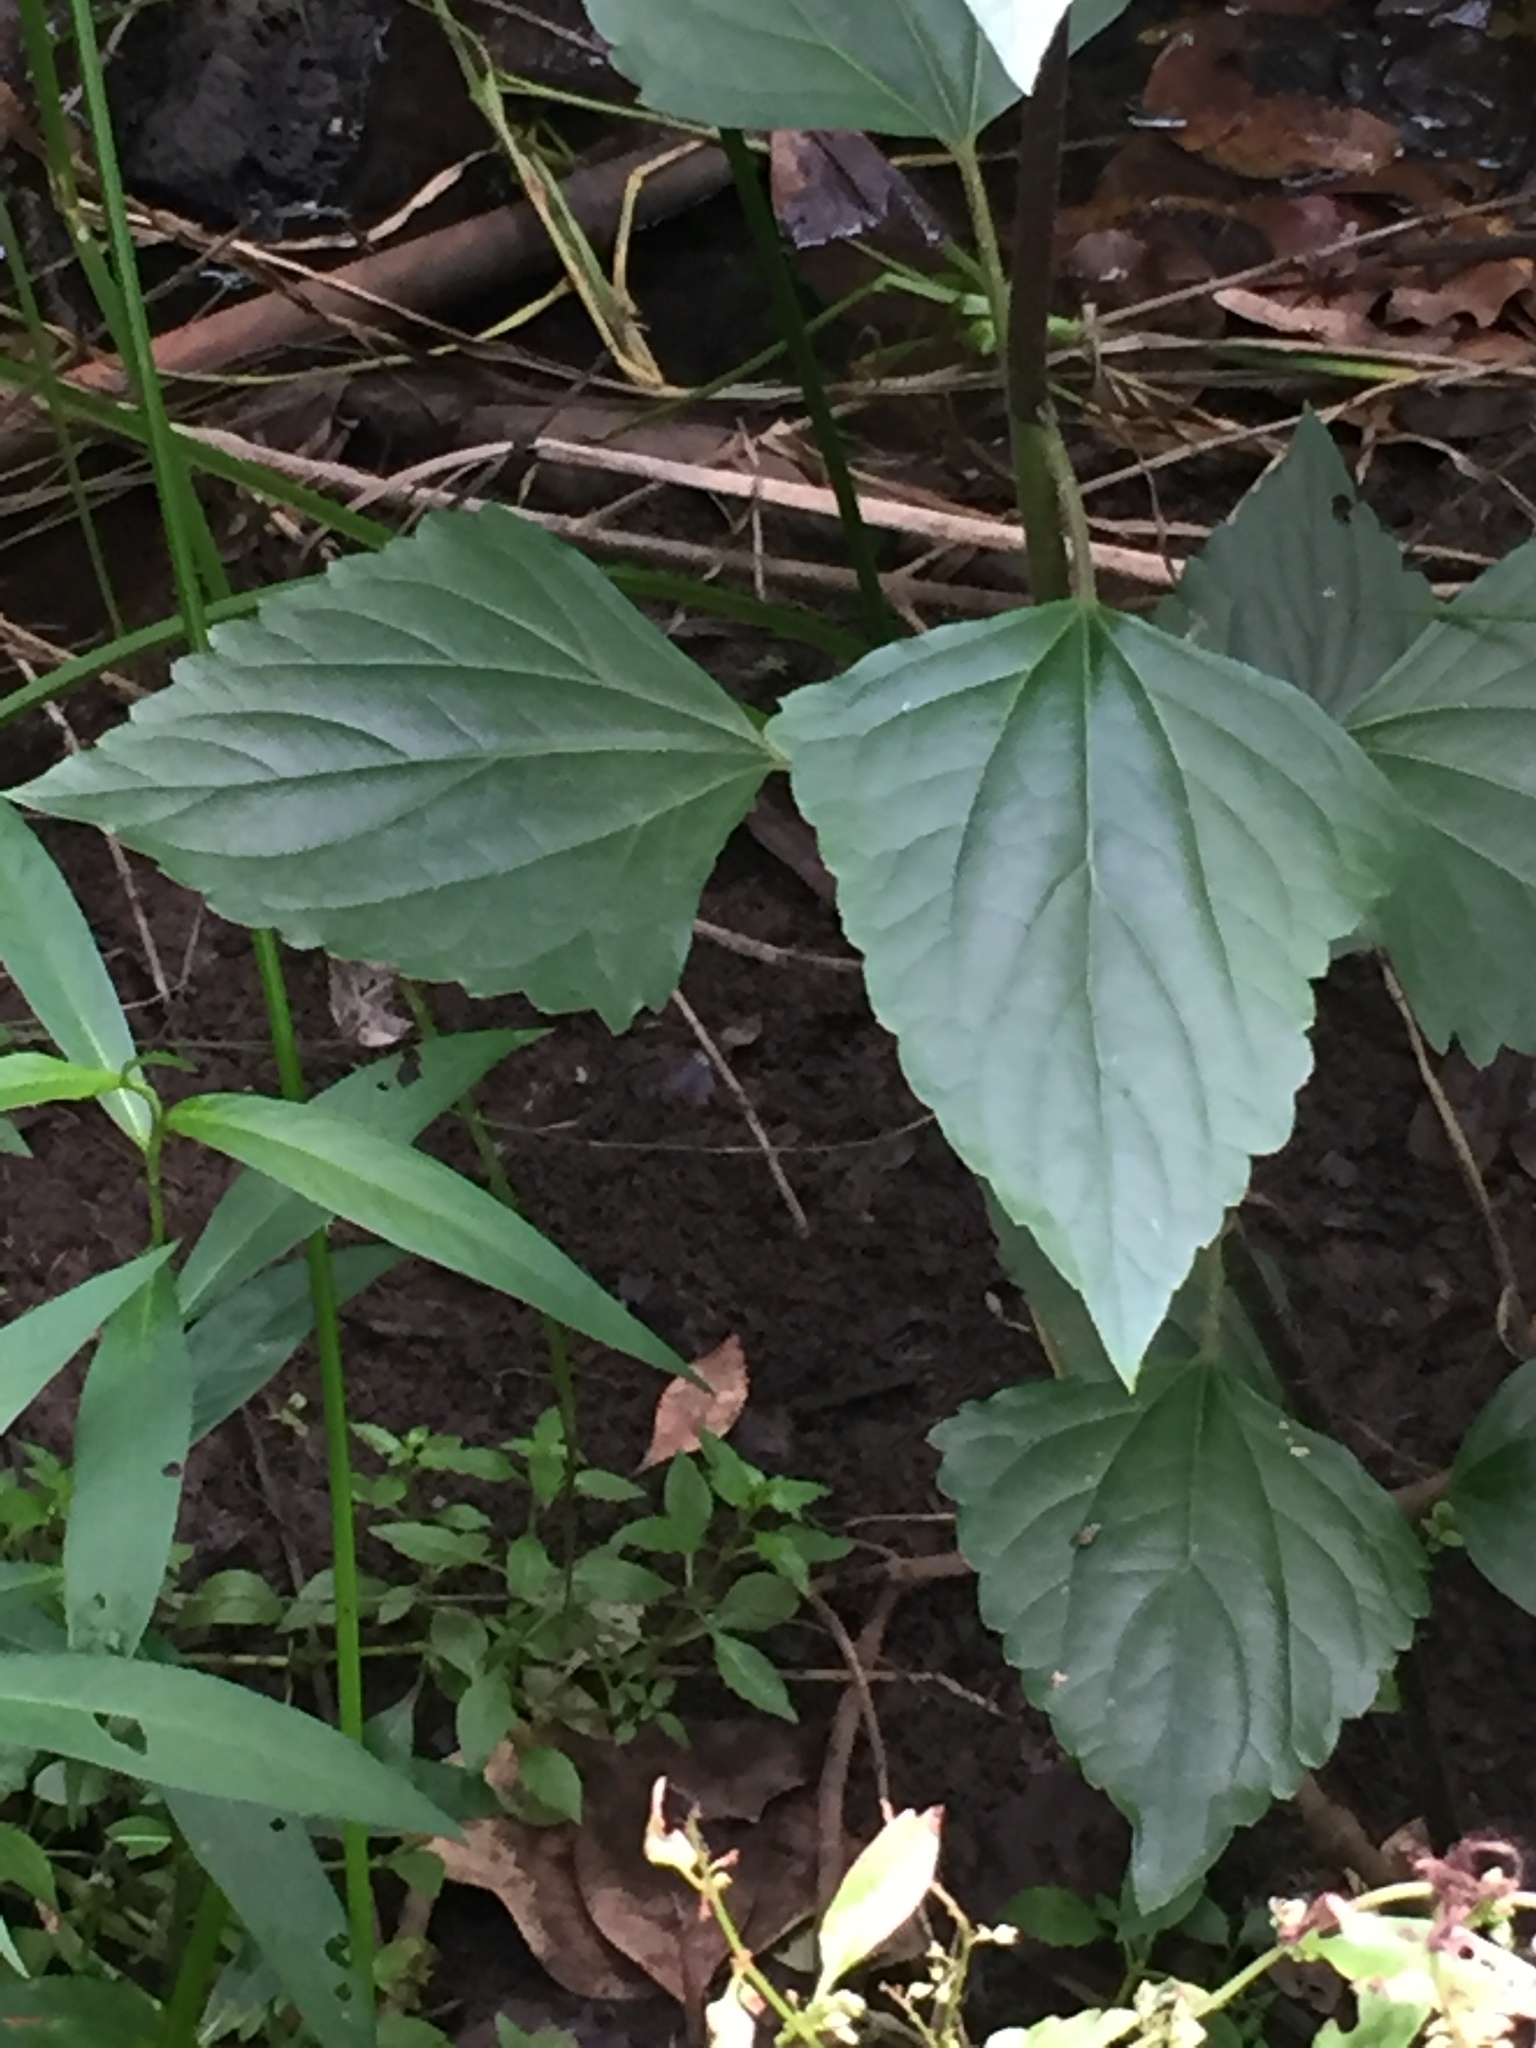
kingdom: Plantae
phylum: Tracheophyta
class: Magnoliopsida
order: Asterales
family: Asteraceae
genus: Ageratina
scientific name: Ageratina adenophora
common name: Sticky snakeroot
